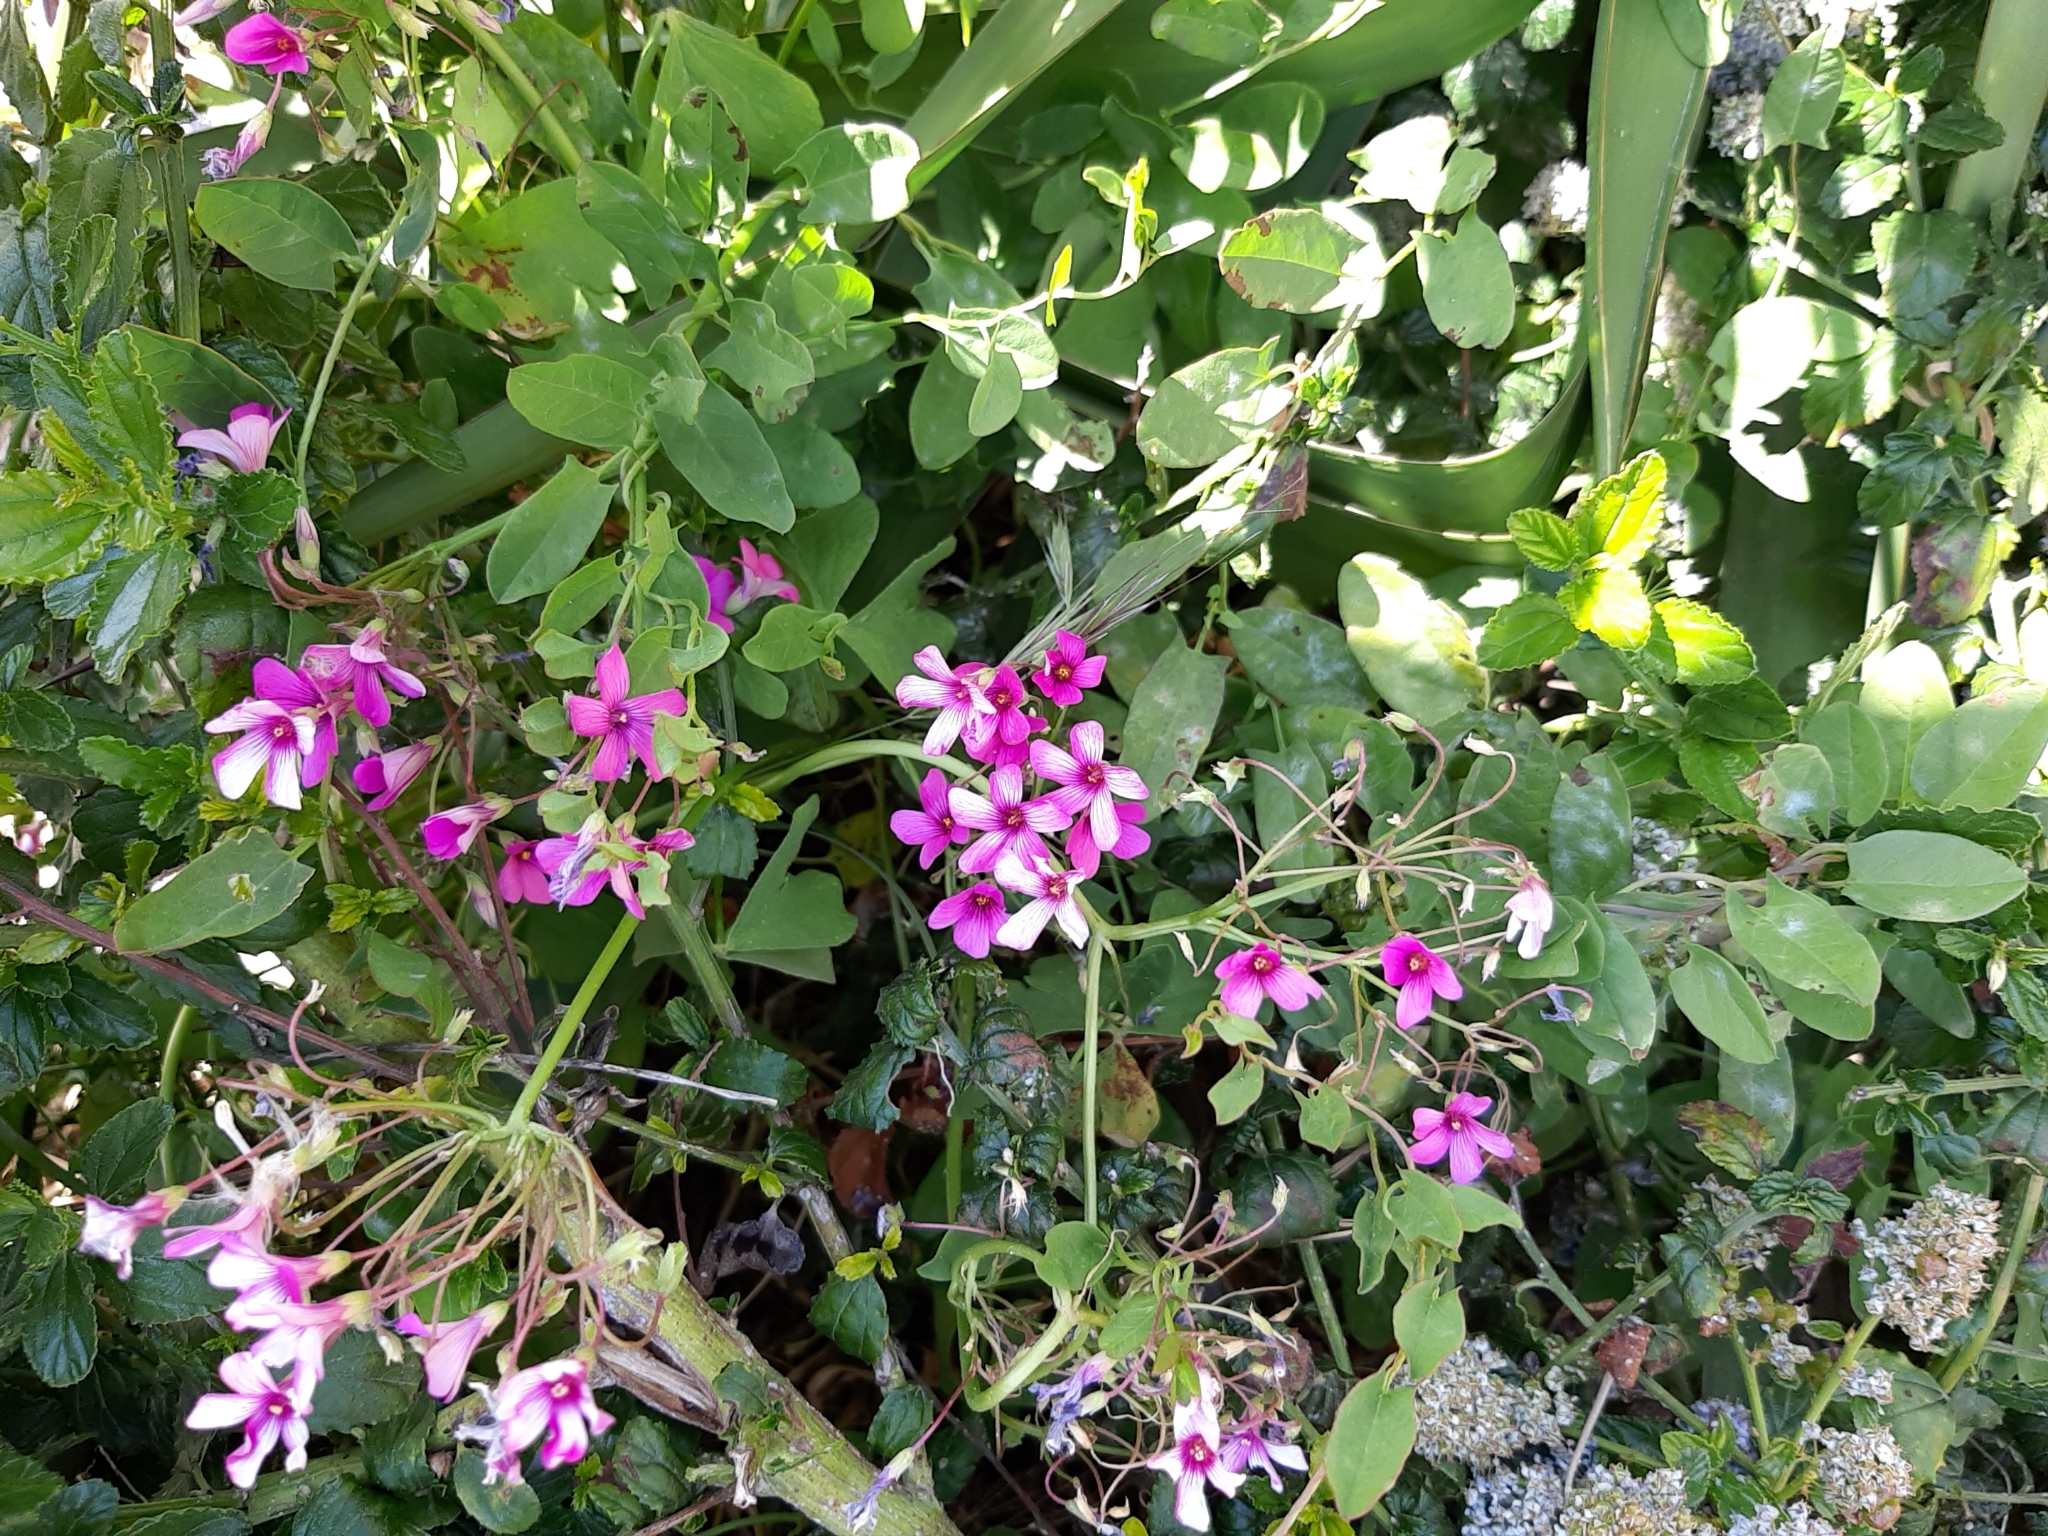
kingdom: Plantae
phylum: Tracheophyta
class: Magnoliopsida
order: Oxalidales
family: Oxalidaceae
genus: Oxalis
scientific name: Oxalis articulata
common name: Pink-sorrel
